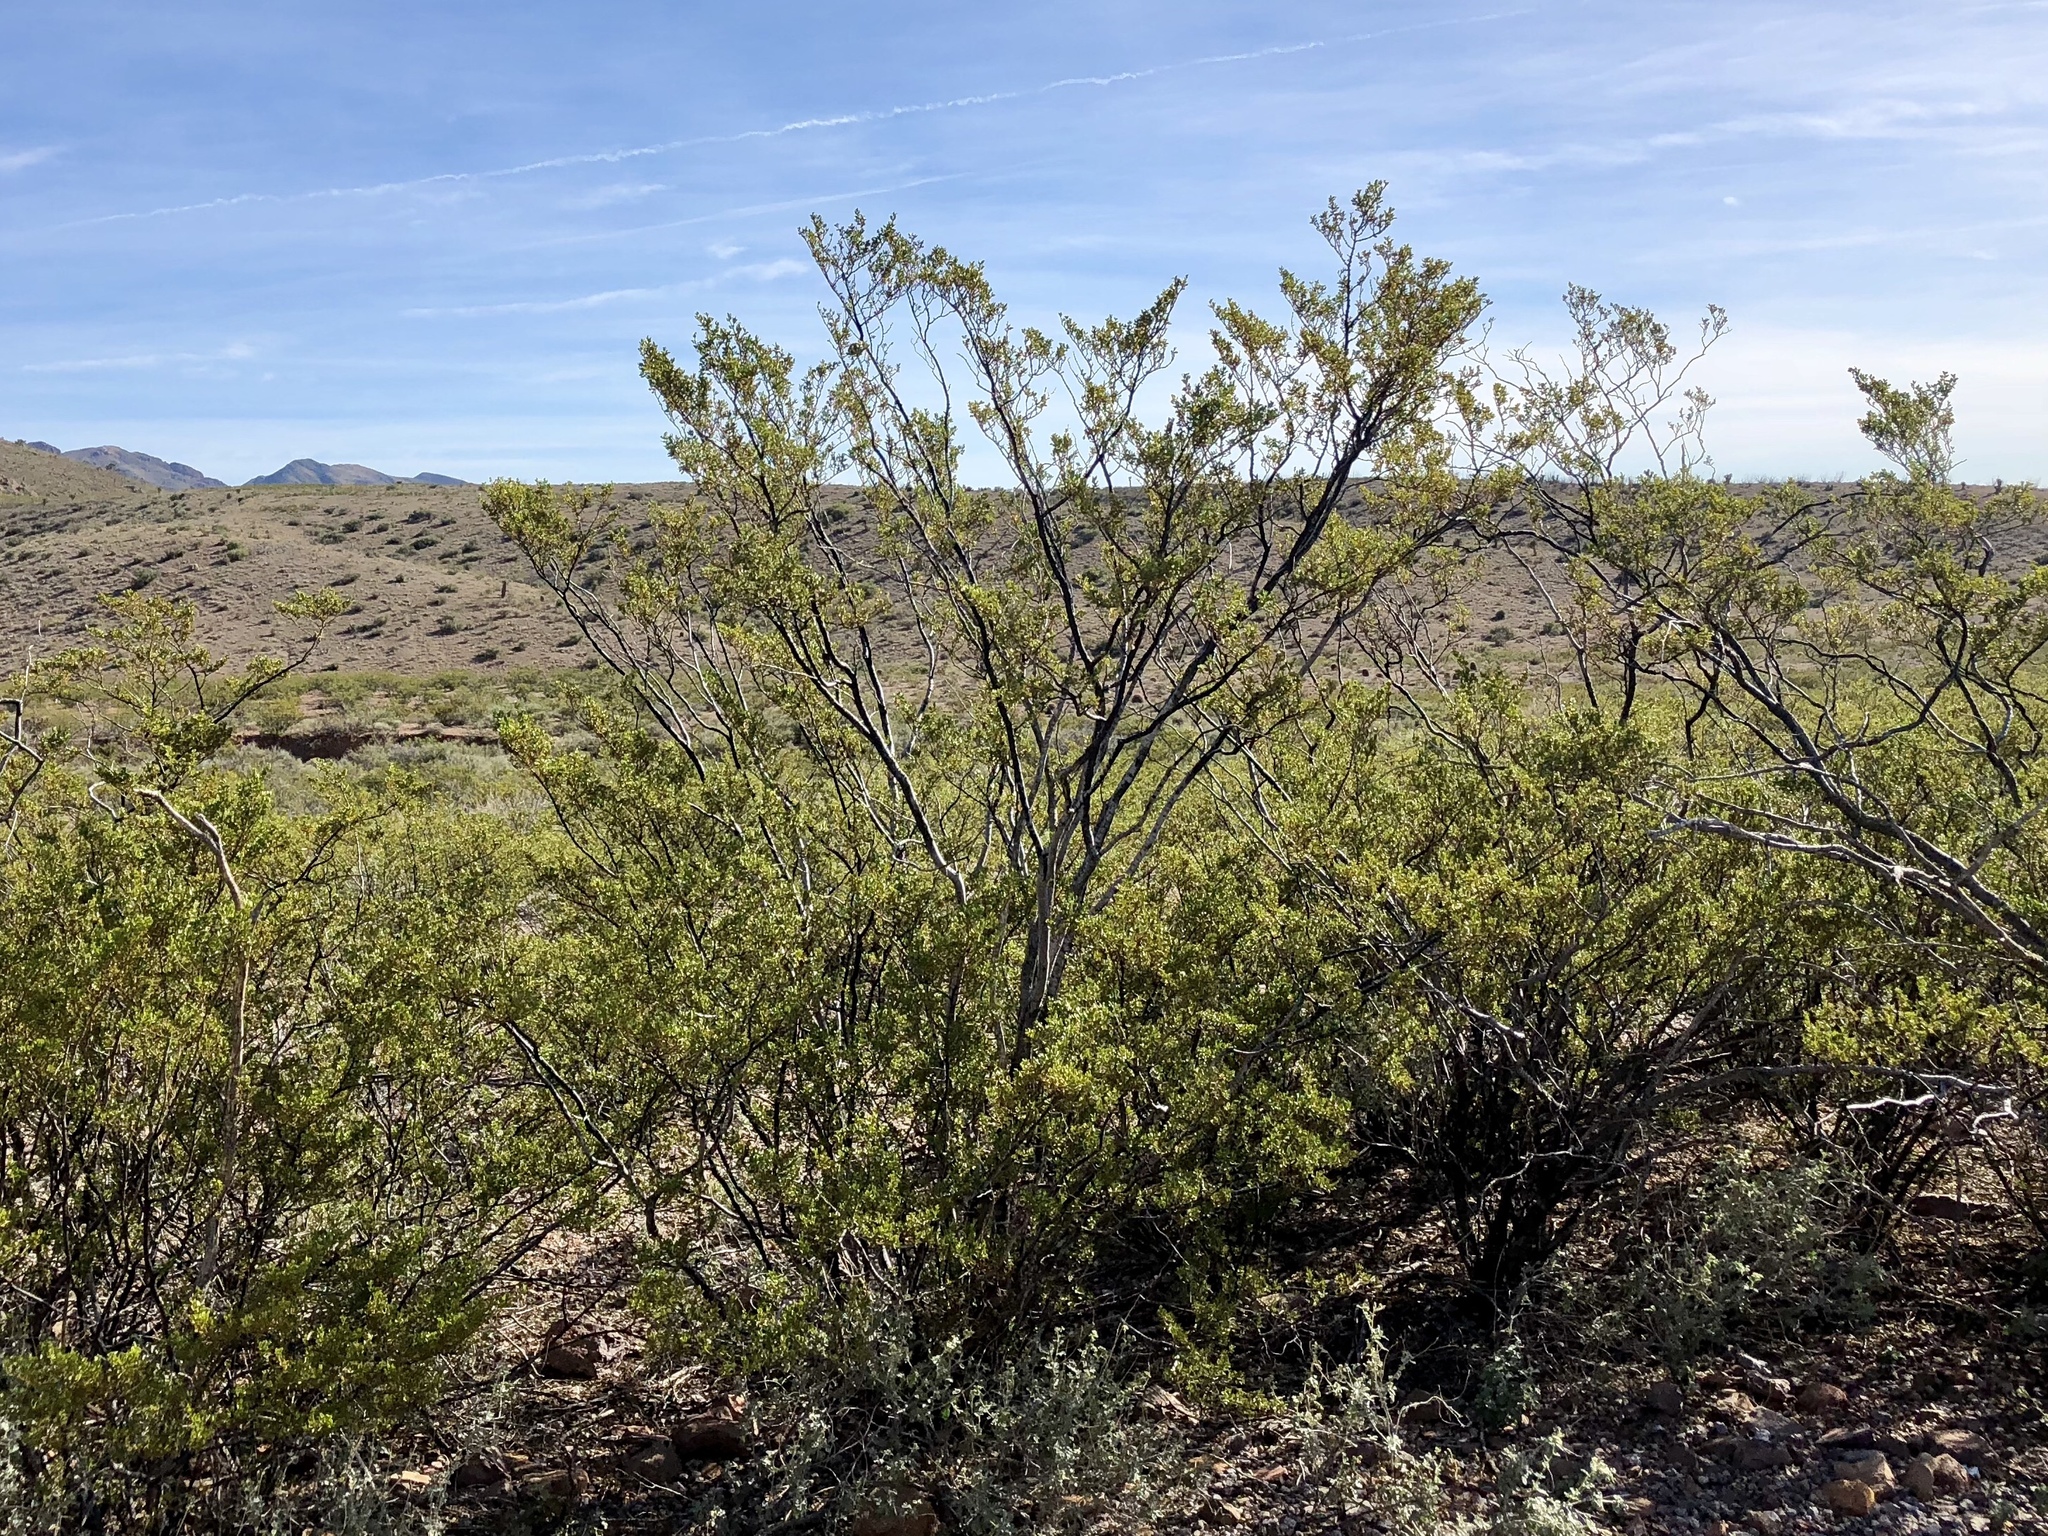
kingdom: Plantae
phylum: Tracheophyta
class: Magnoliopsida
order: Zygophyllales
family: Zygophyllaceae
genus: Larrea
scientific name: Larrea tridentata
